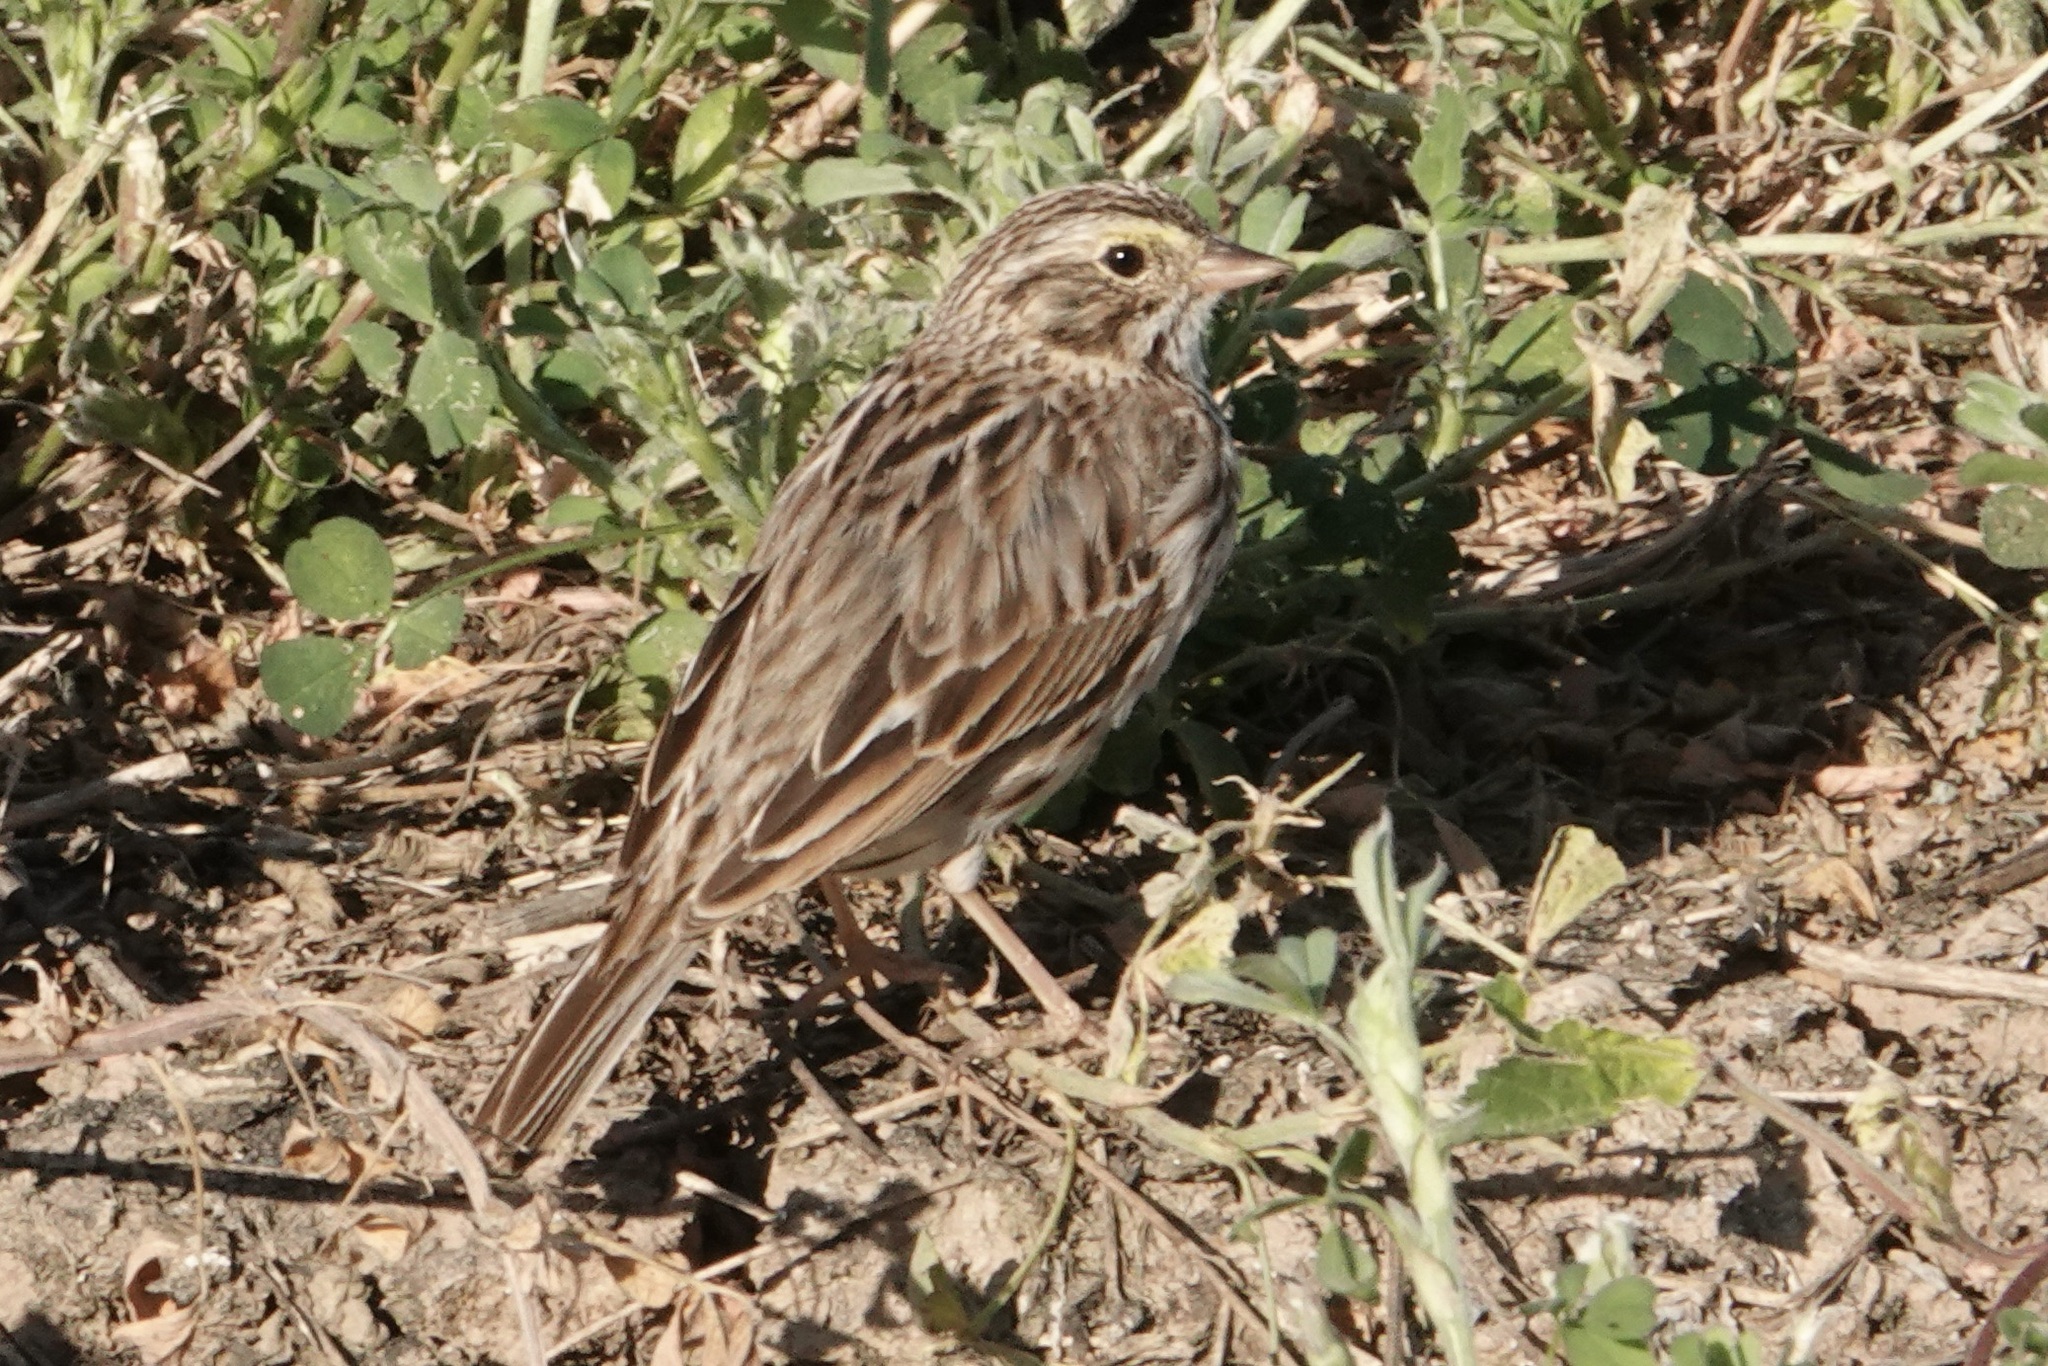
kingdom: Animalia
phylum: Chordata
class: Aves
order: Passeriformes
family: Passerellidae
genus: Passerculus
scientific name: Passerculus sandwichensis
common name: Savannah sparrow
